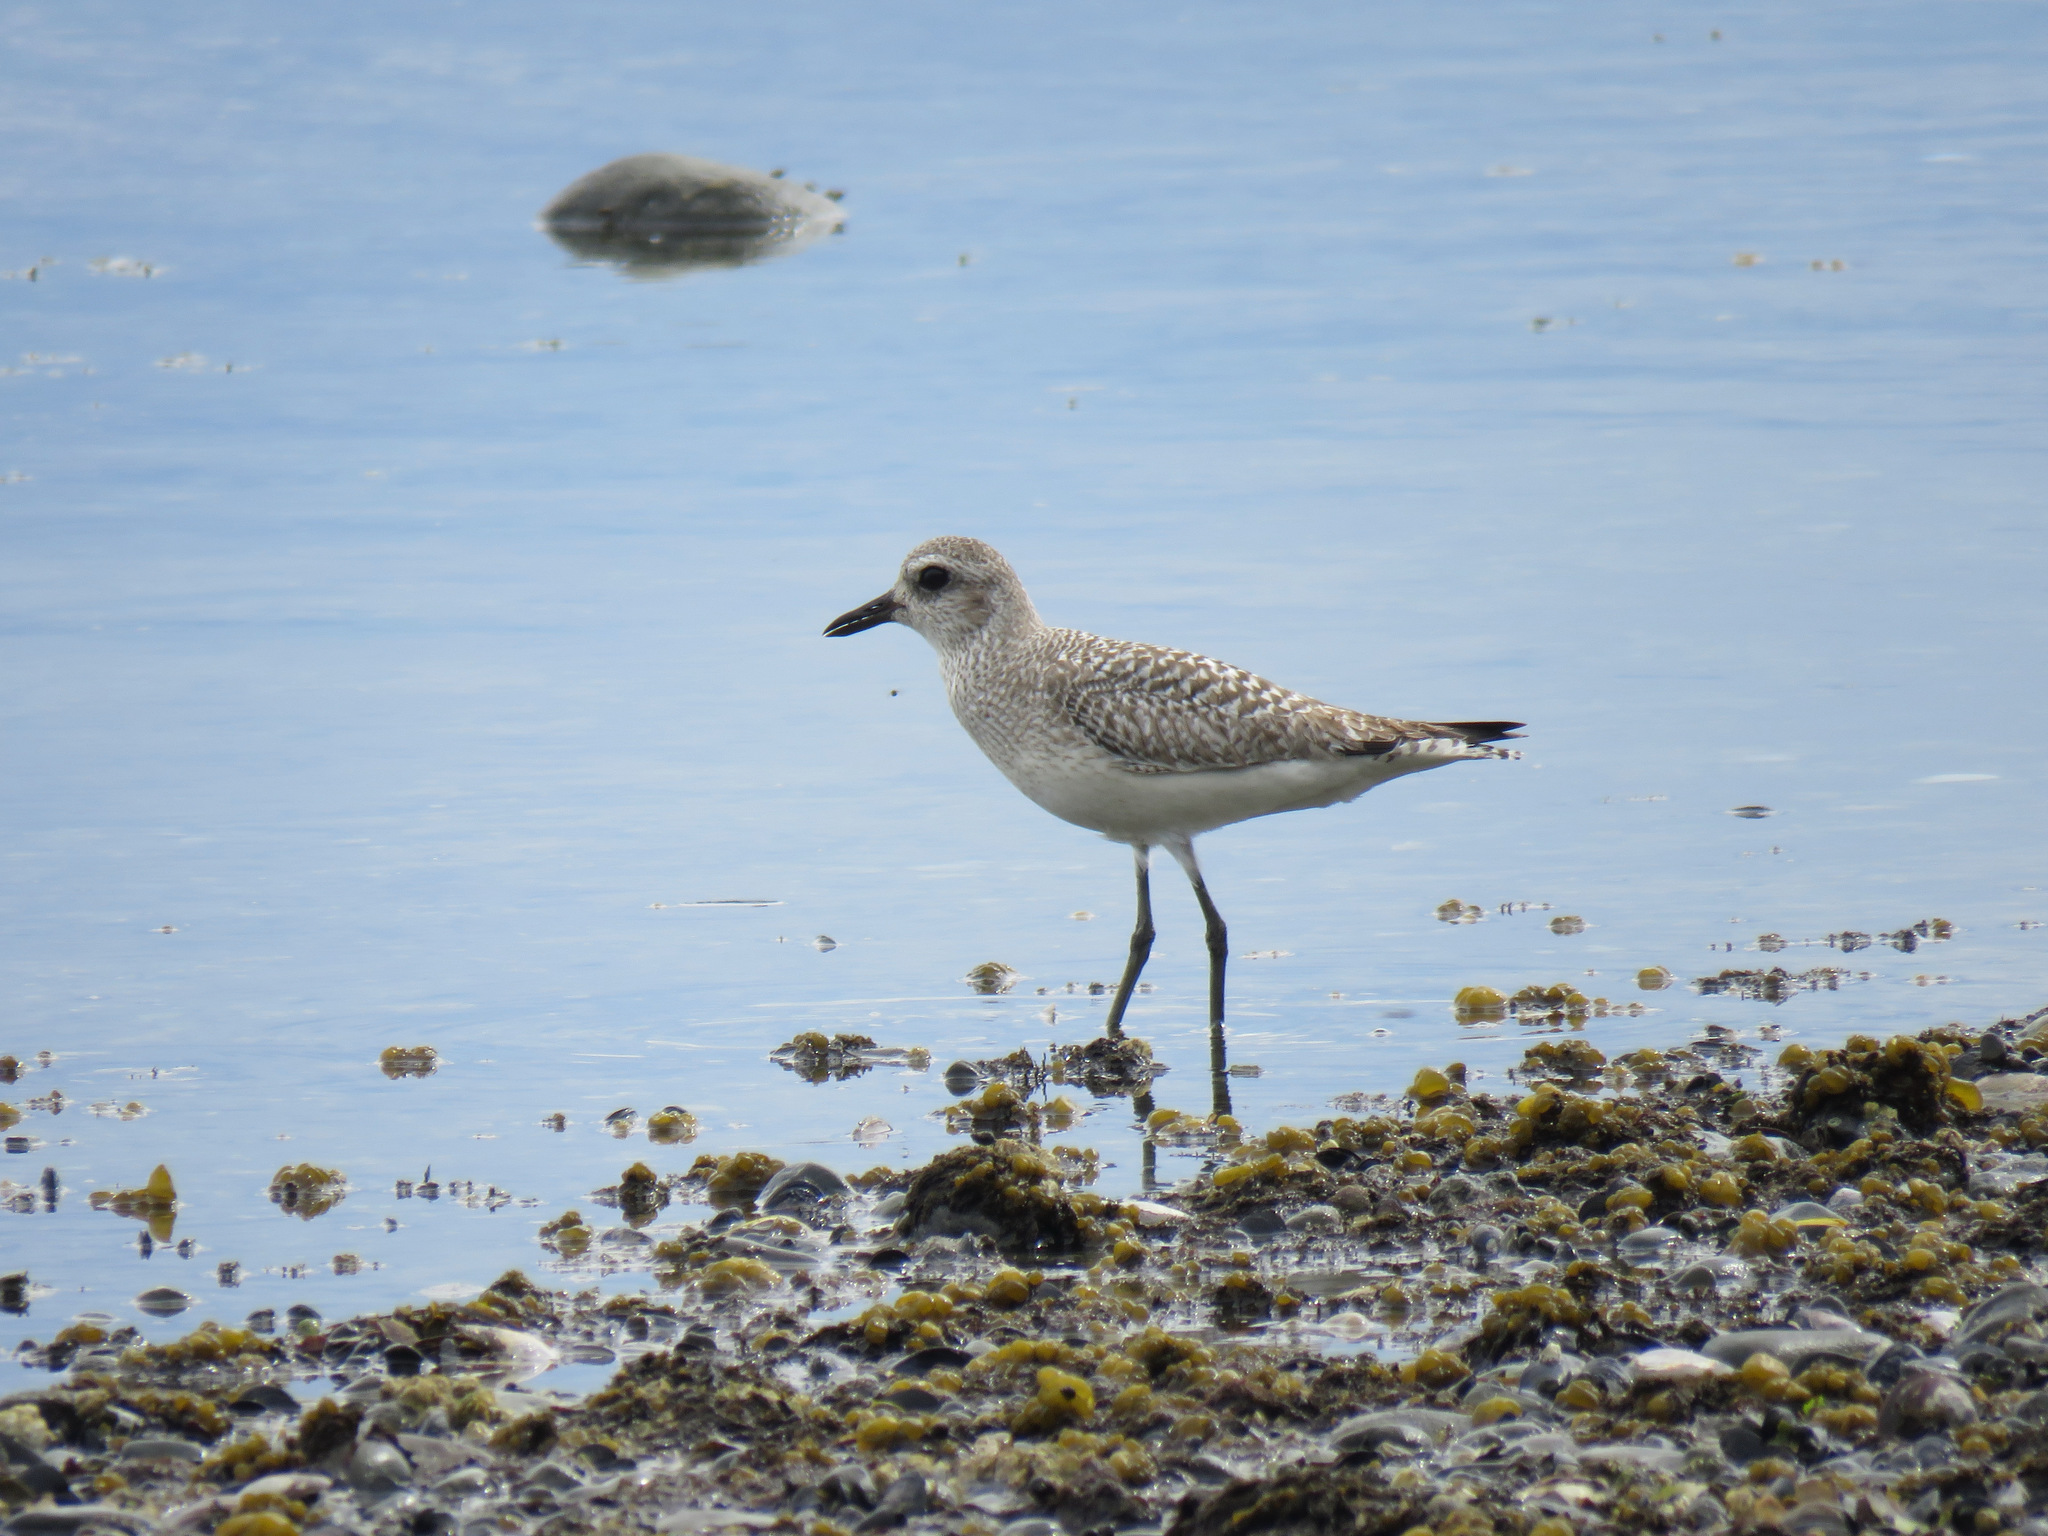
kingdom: Animalia
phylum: Chordata
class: Aves
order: Charadriiformes
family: Charadriidae
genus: Pluvialis
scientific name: Pluvialis squatarola
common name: Grey plover
